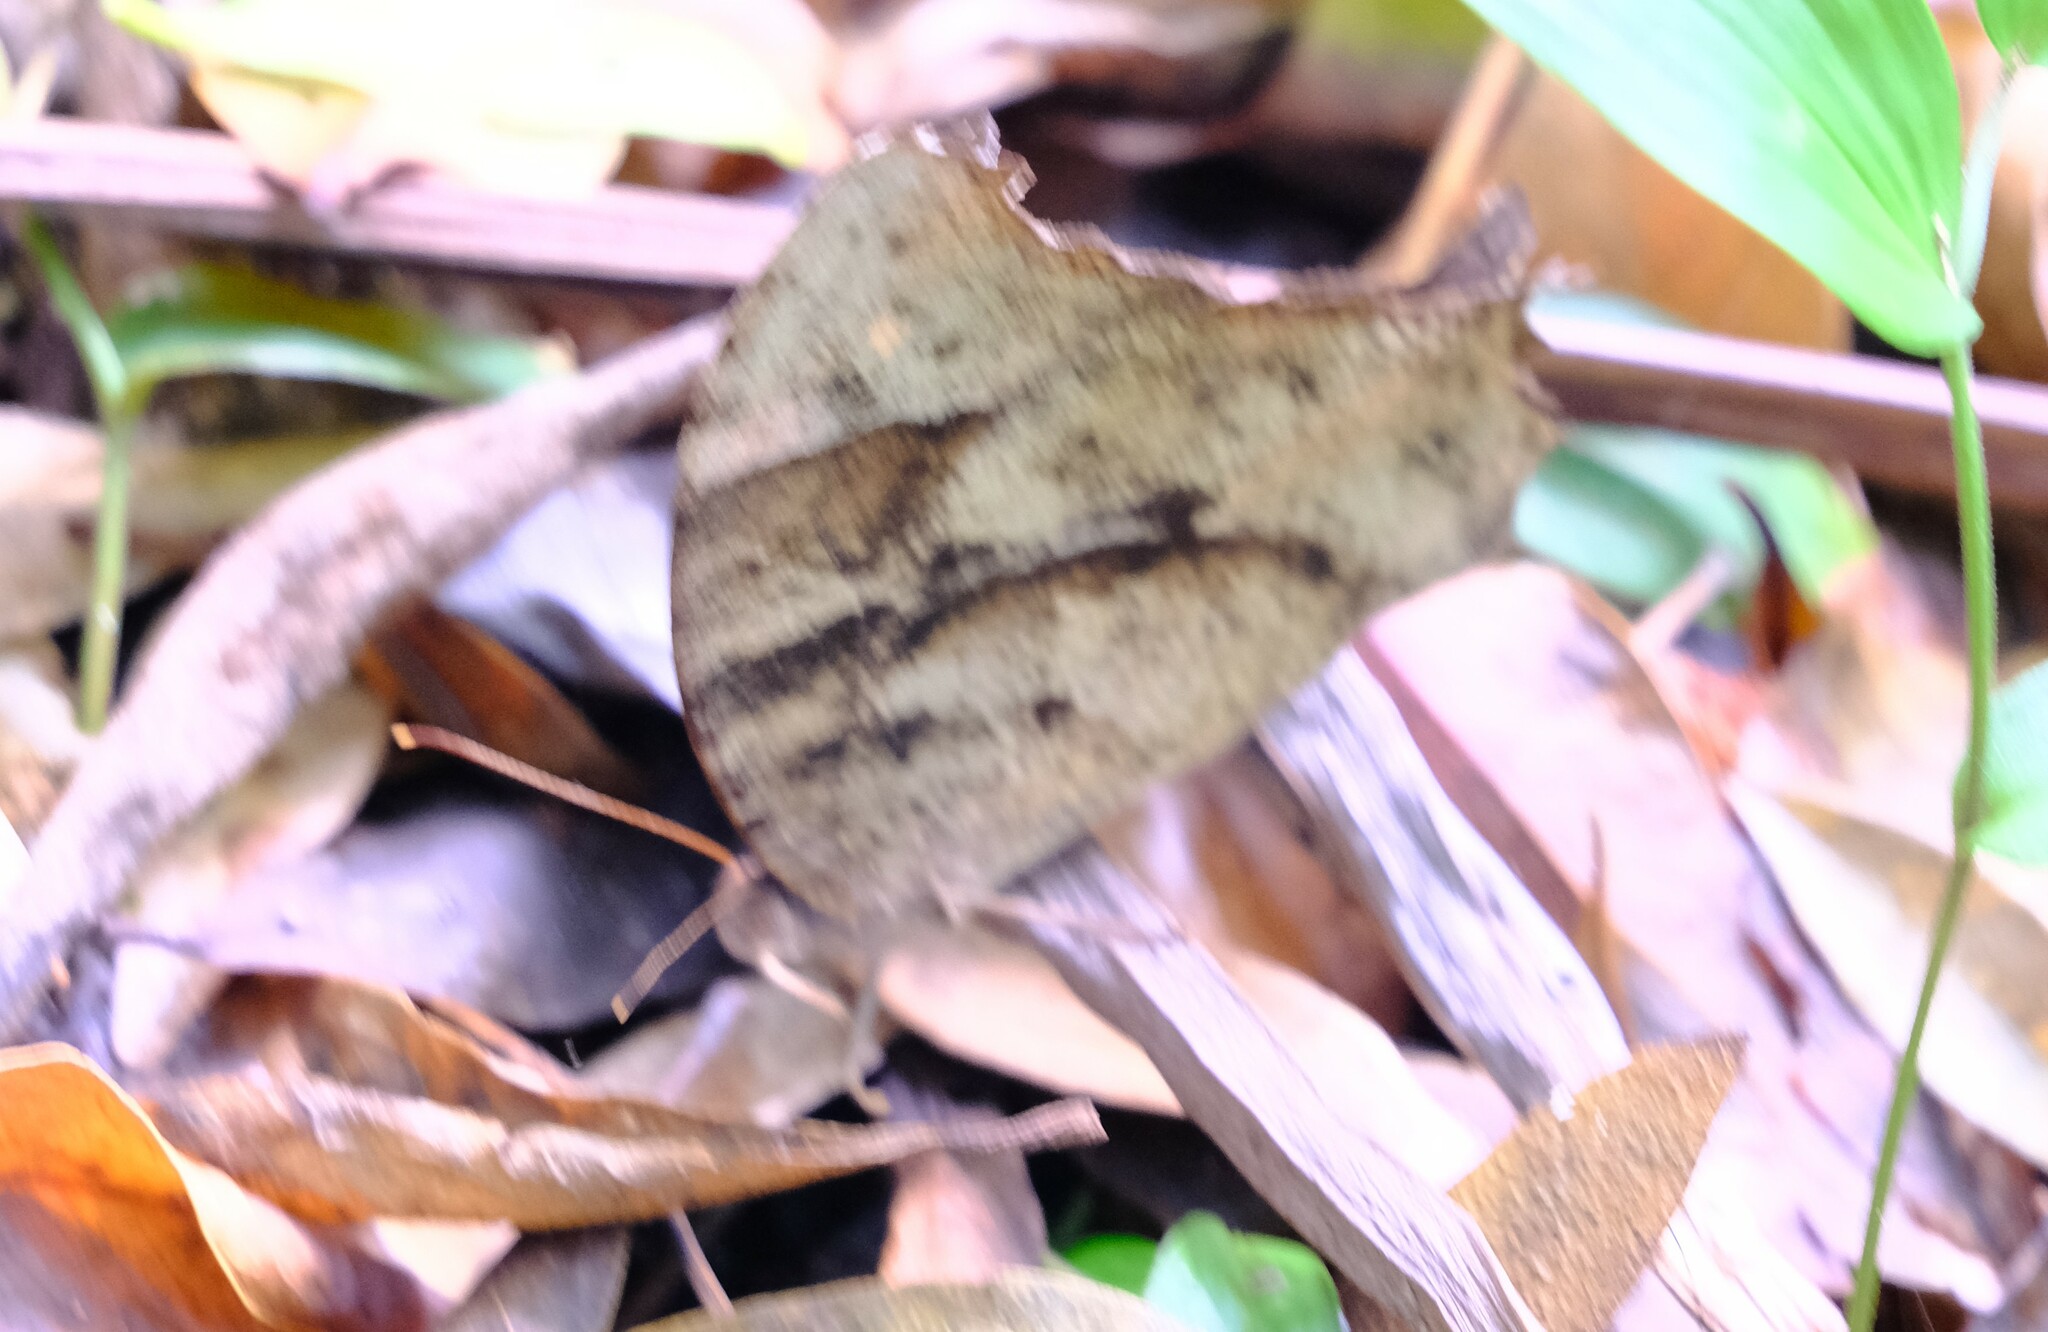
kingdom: Animalia
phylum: Arthropoda
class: Insecta
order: Lepidoptera
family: Nymphalidae
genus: Melanitis
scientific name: Melanitis leda
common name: Twilight brown
